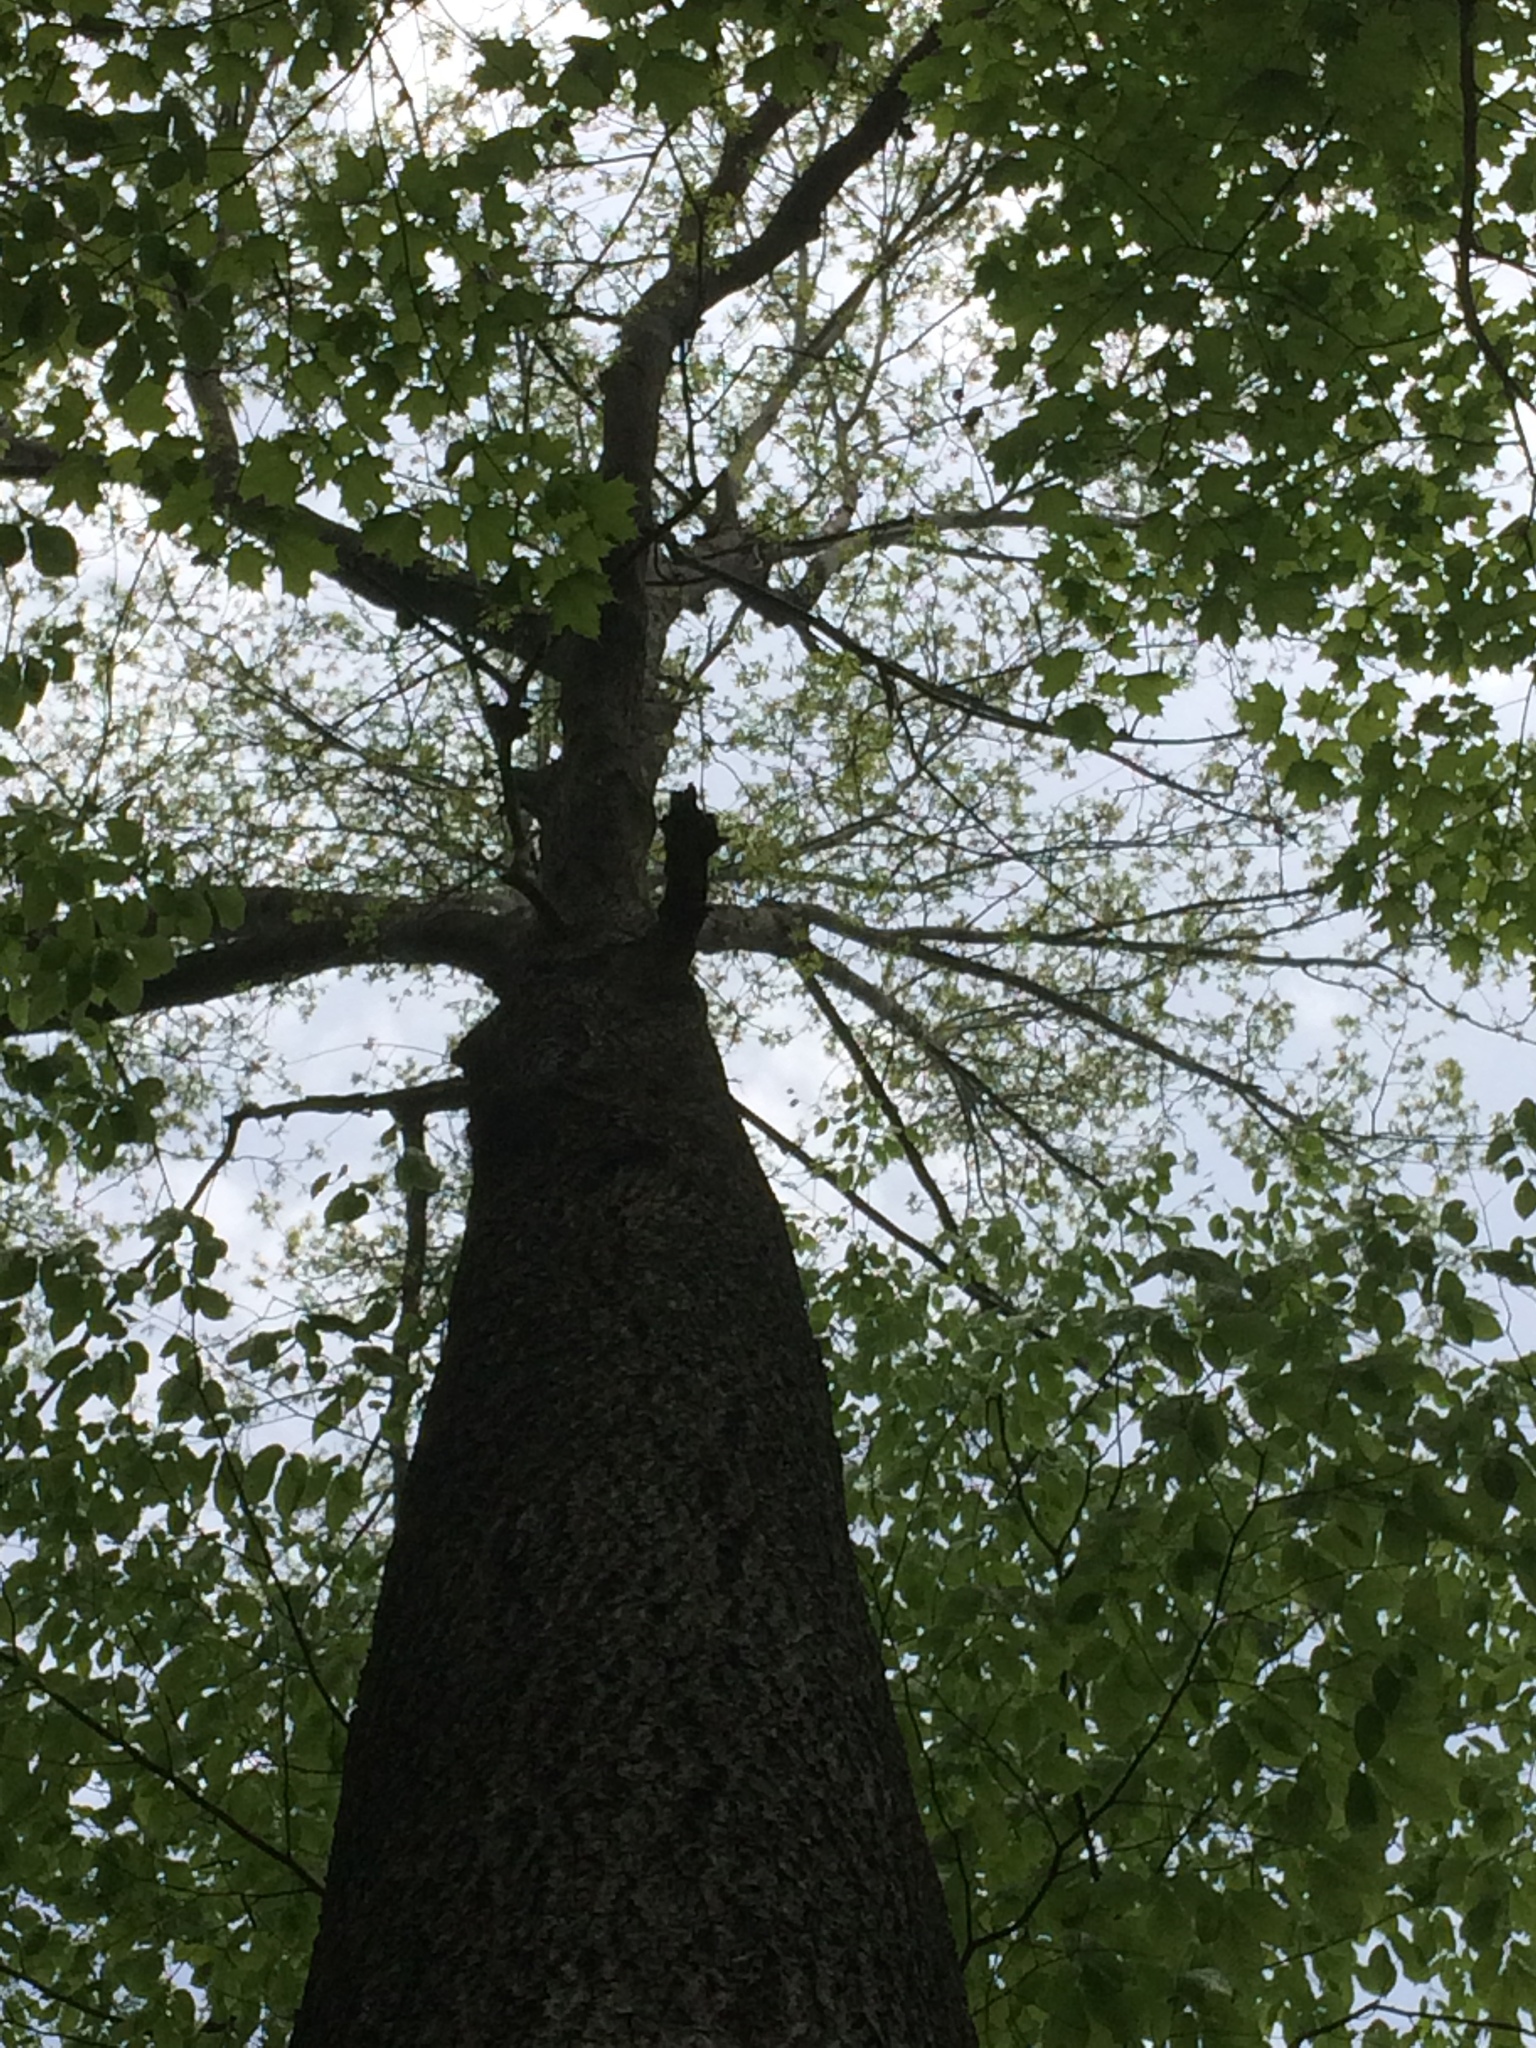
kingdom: Plantae
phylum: Tracheophyta
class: Magnoliopsida
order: Fagales
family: Juglandaceae
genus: Carya
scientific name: Carya cordiformis
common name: Bitternut hickory
